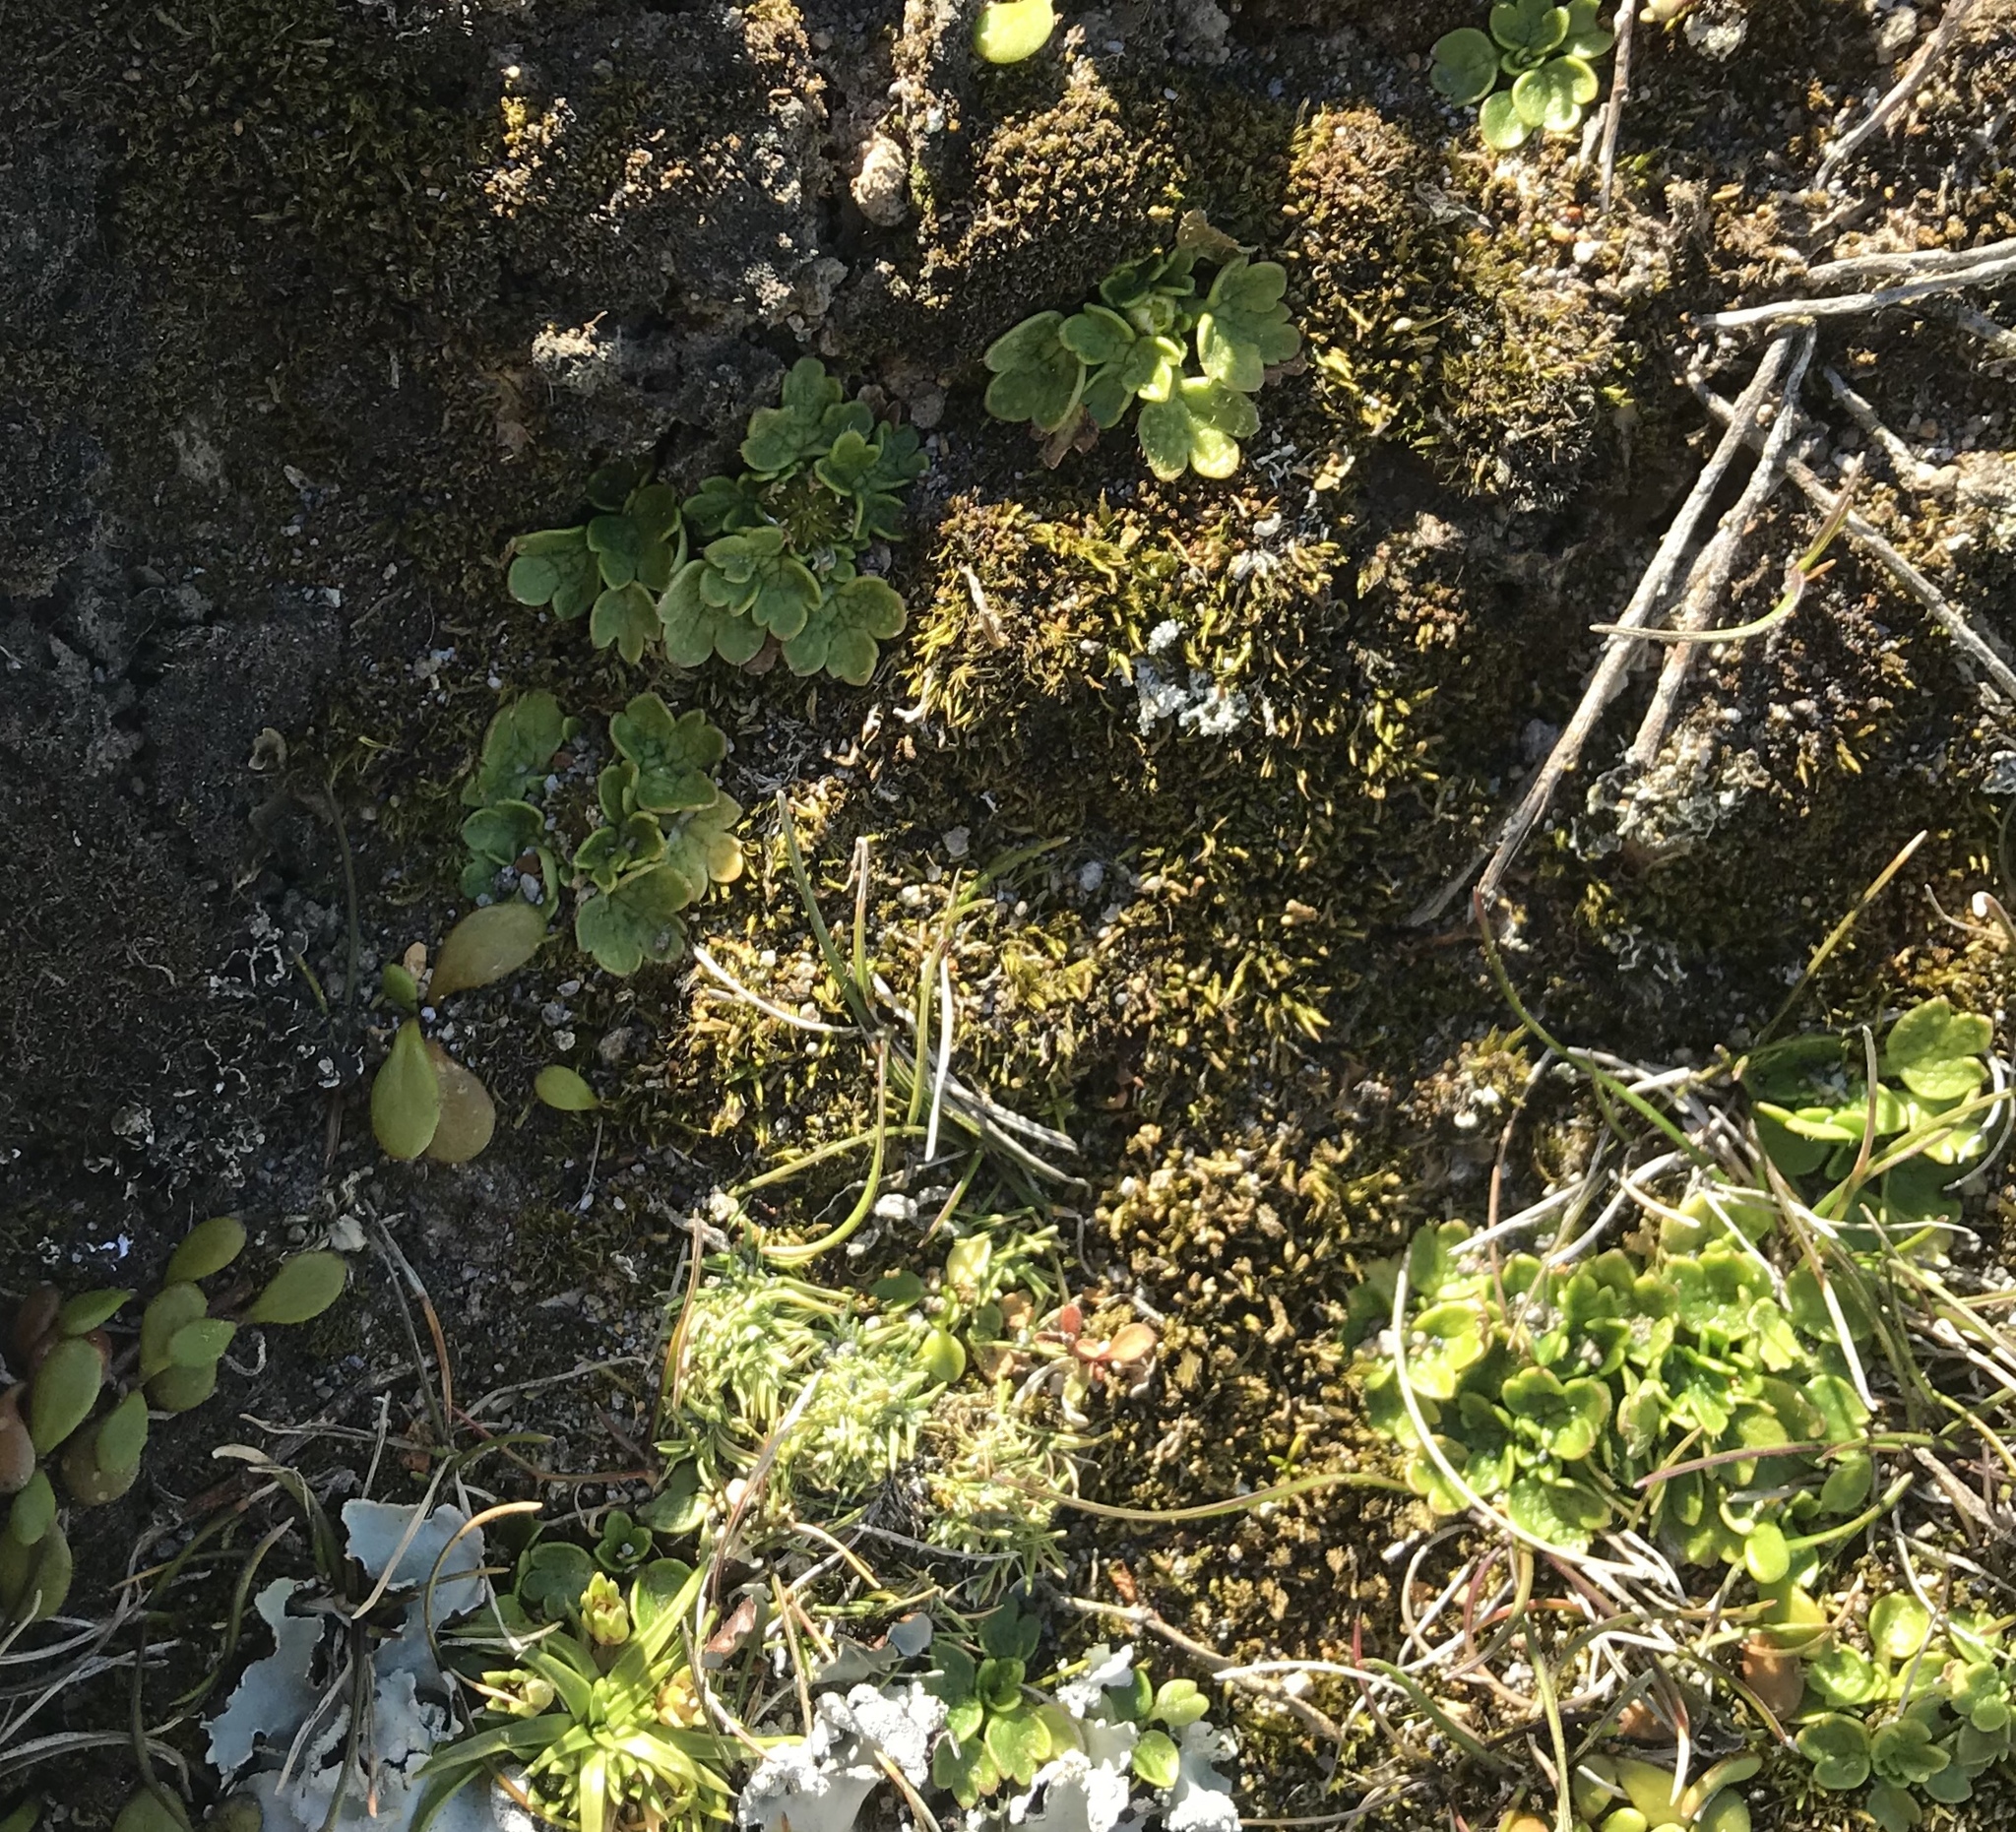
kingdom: Plantae
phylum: Tracheophyta
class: Magnoliopsida
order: Ranunculales
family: Ranunculaceae
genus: Ranunculus
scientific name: Ranunculus recens
